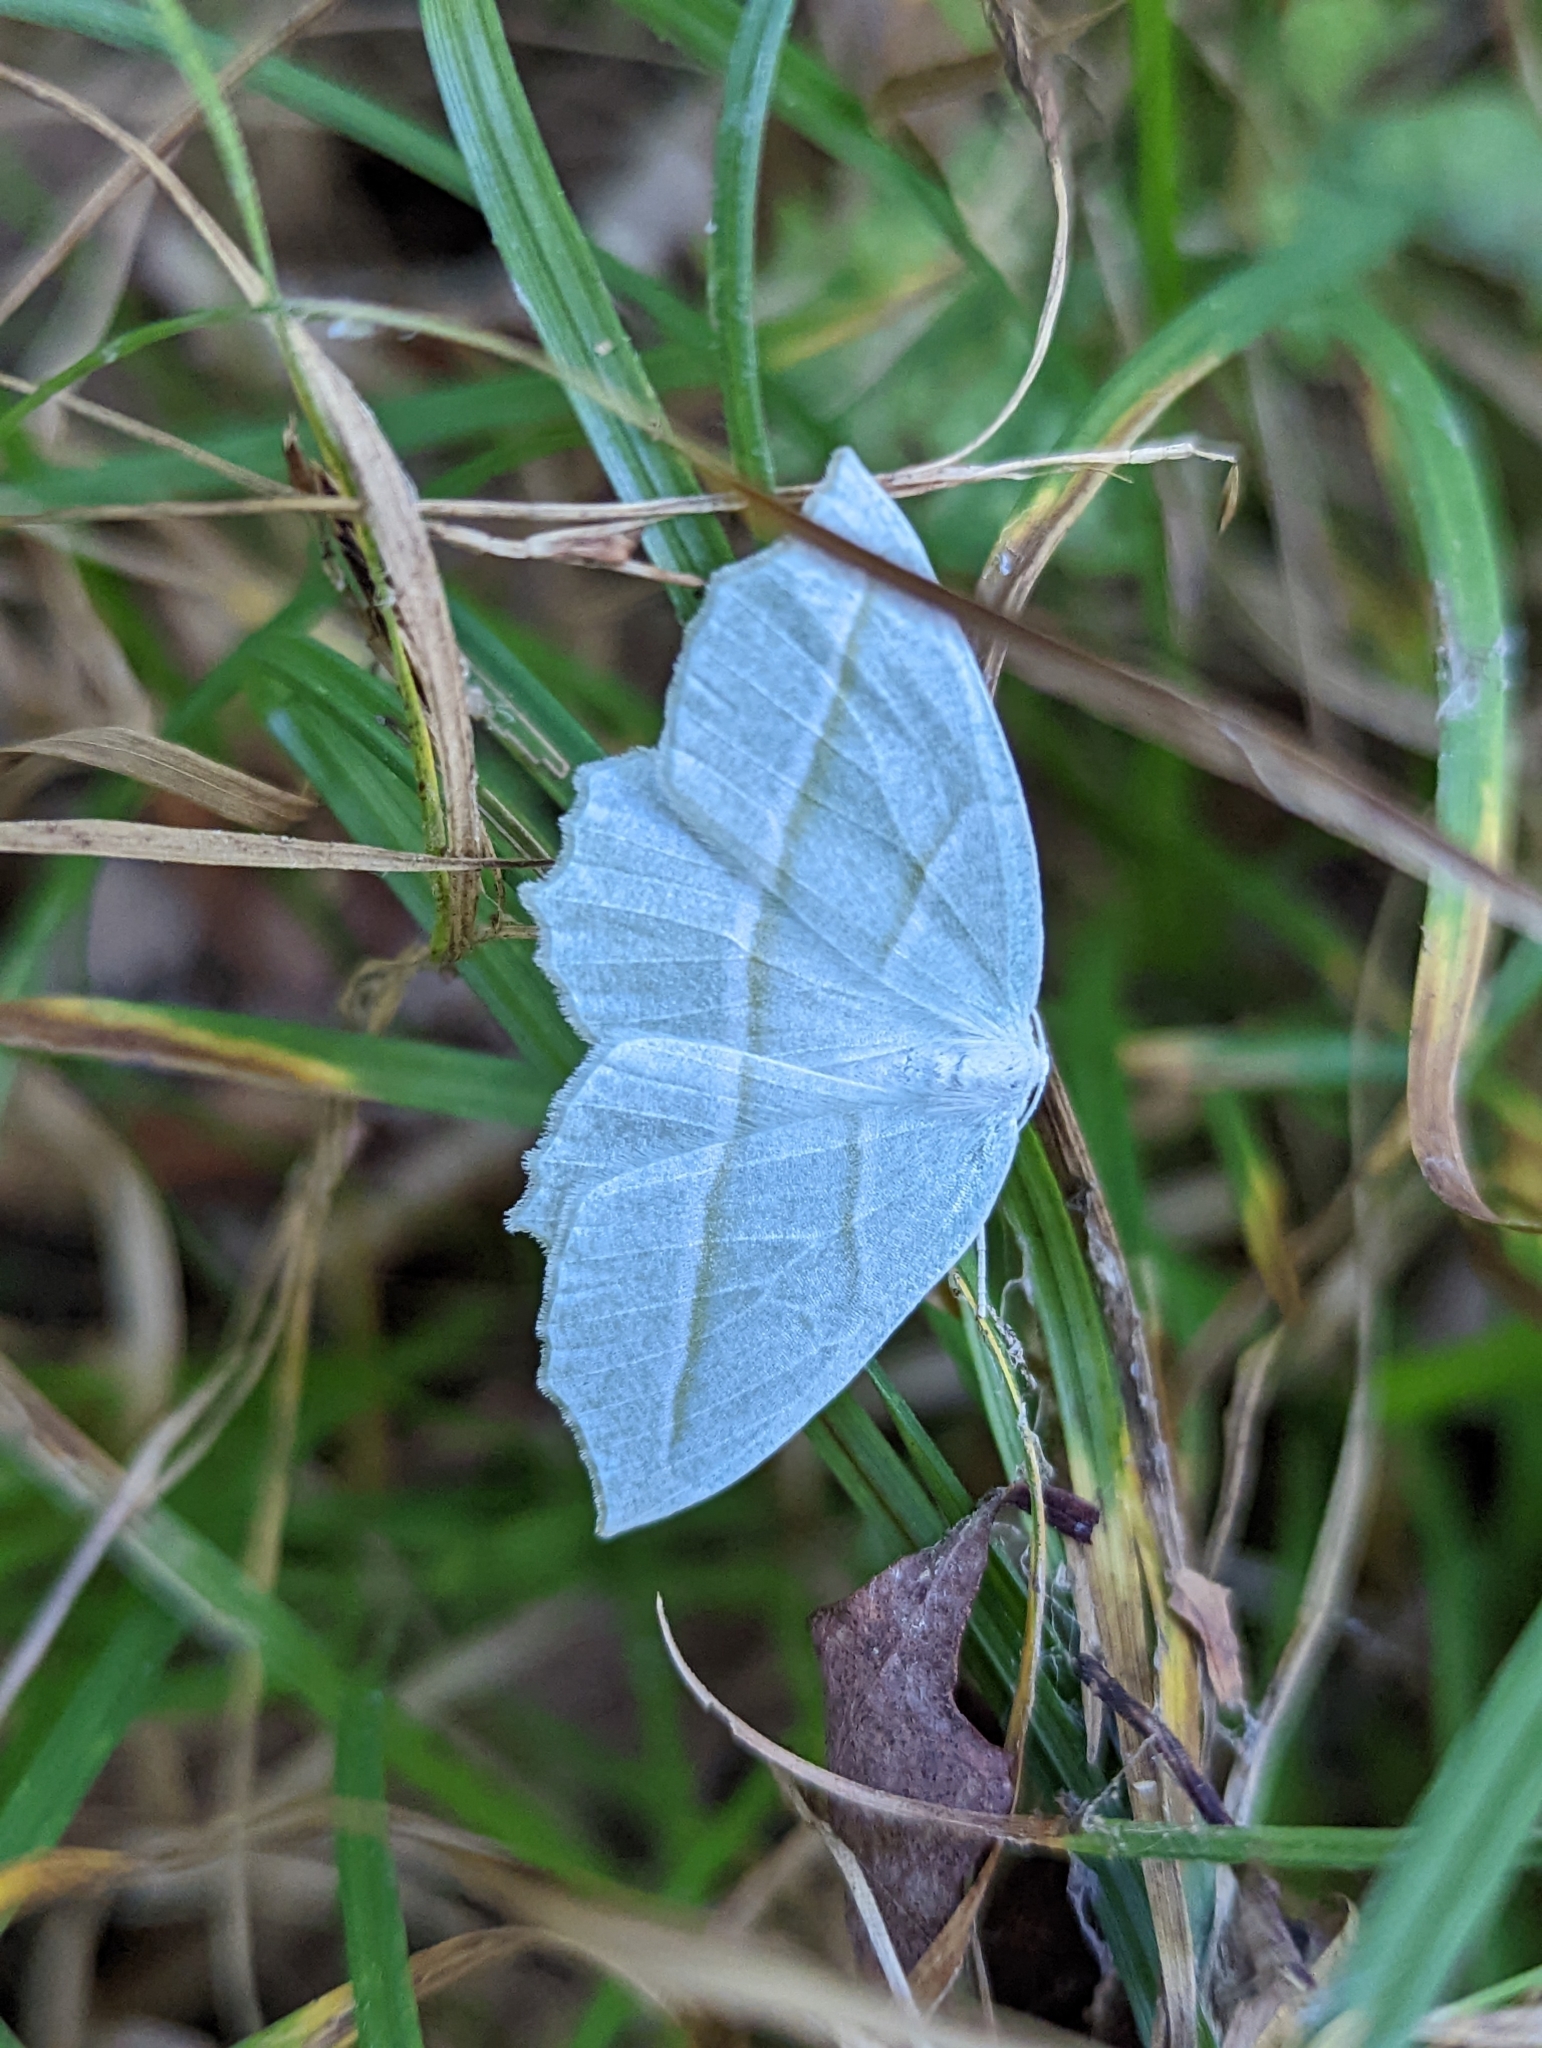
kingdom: Animalia
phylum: Arthropoda
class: Insecta
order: Lepidoptera
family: Geometridae
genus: Campaea
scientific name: Campaea perlata
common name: Fringed looper
